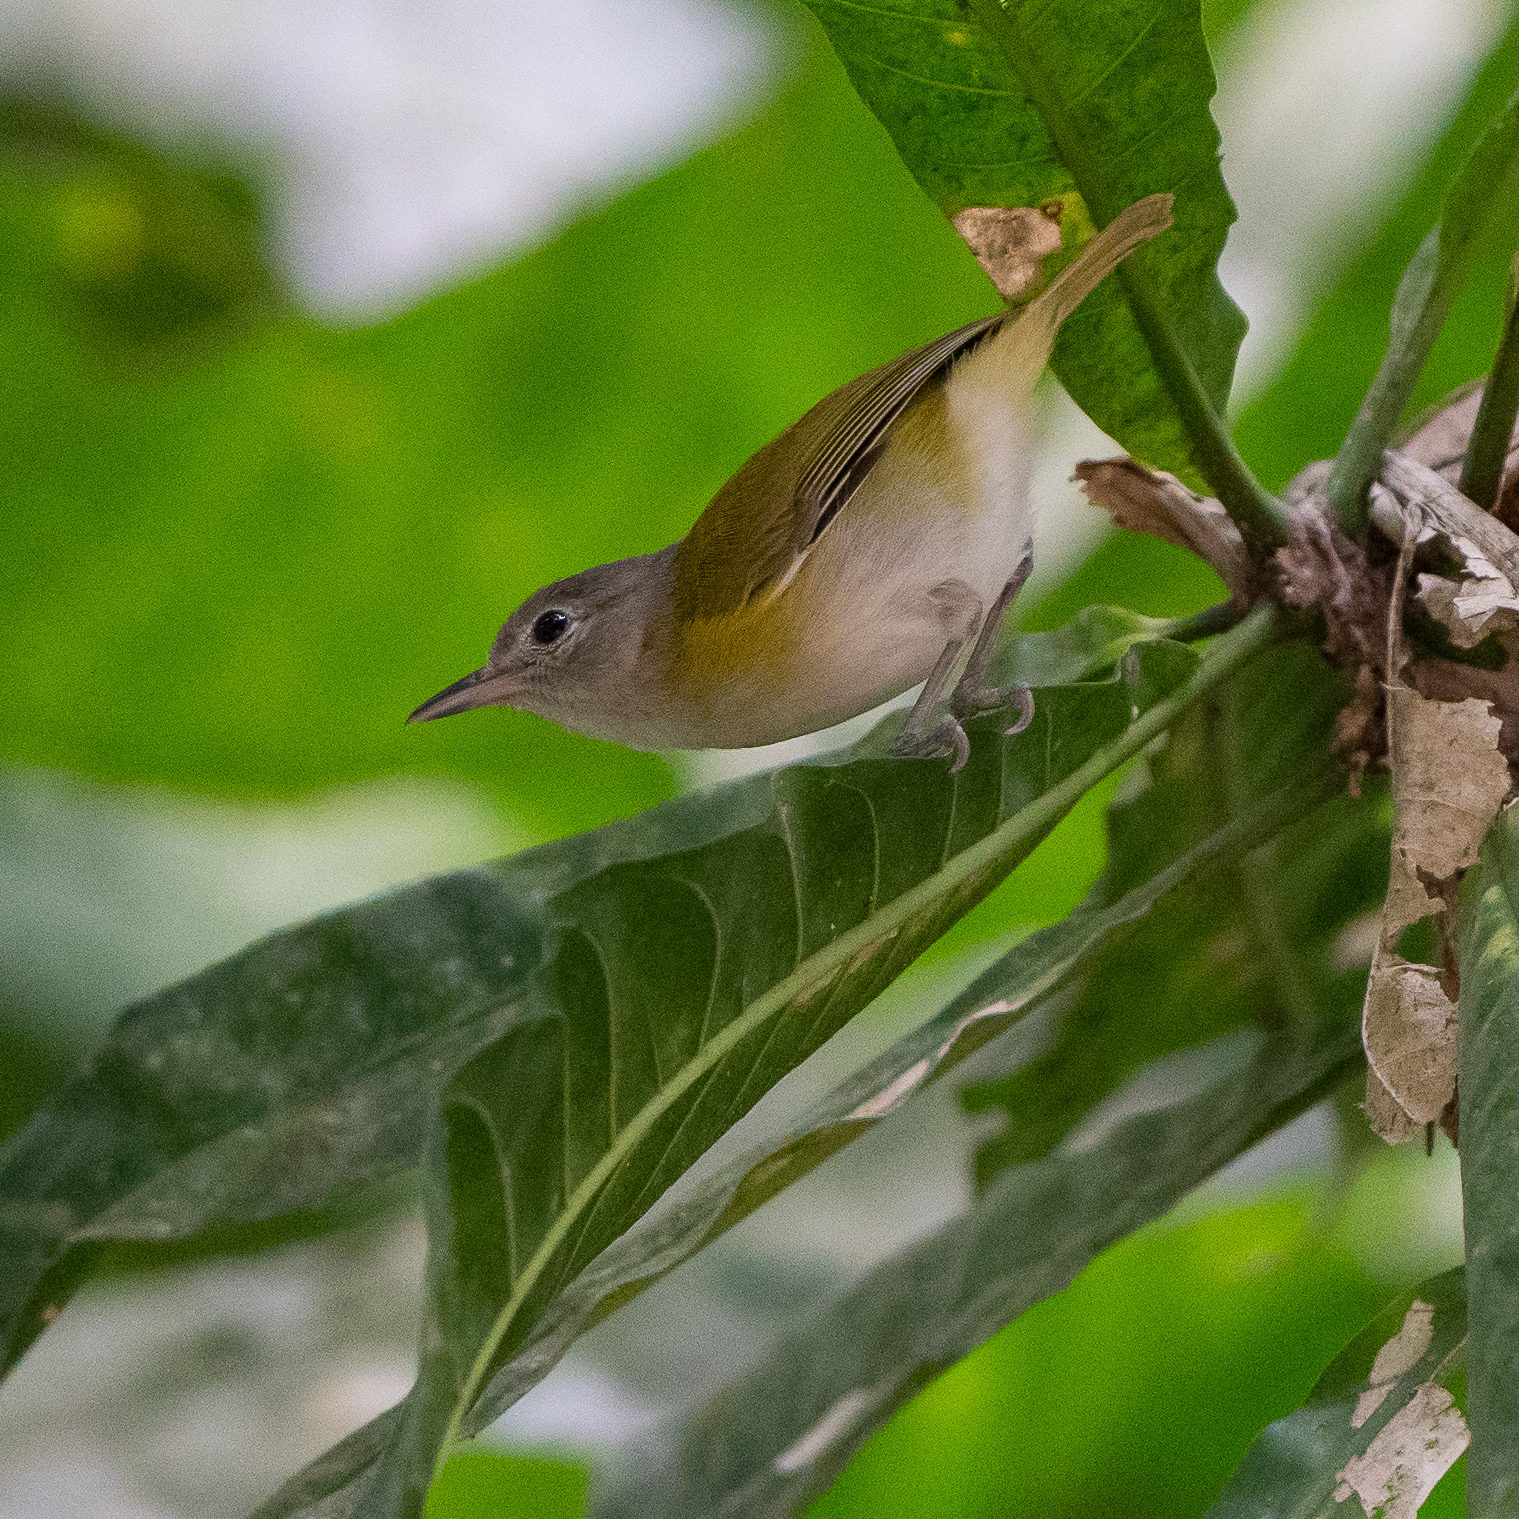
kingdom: Animalia
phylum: Chordata
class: Aves
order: Passeriformes
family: Vireonidae
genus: Hylophilus
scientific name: Hylophilus decurtatus
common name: Lesser greenlet
